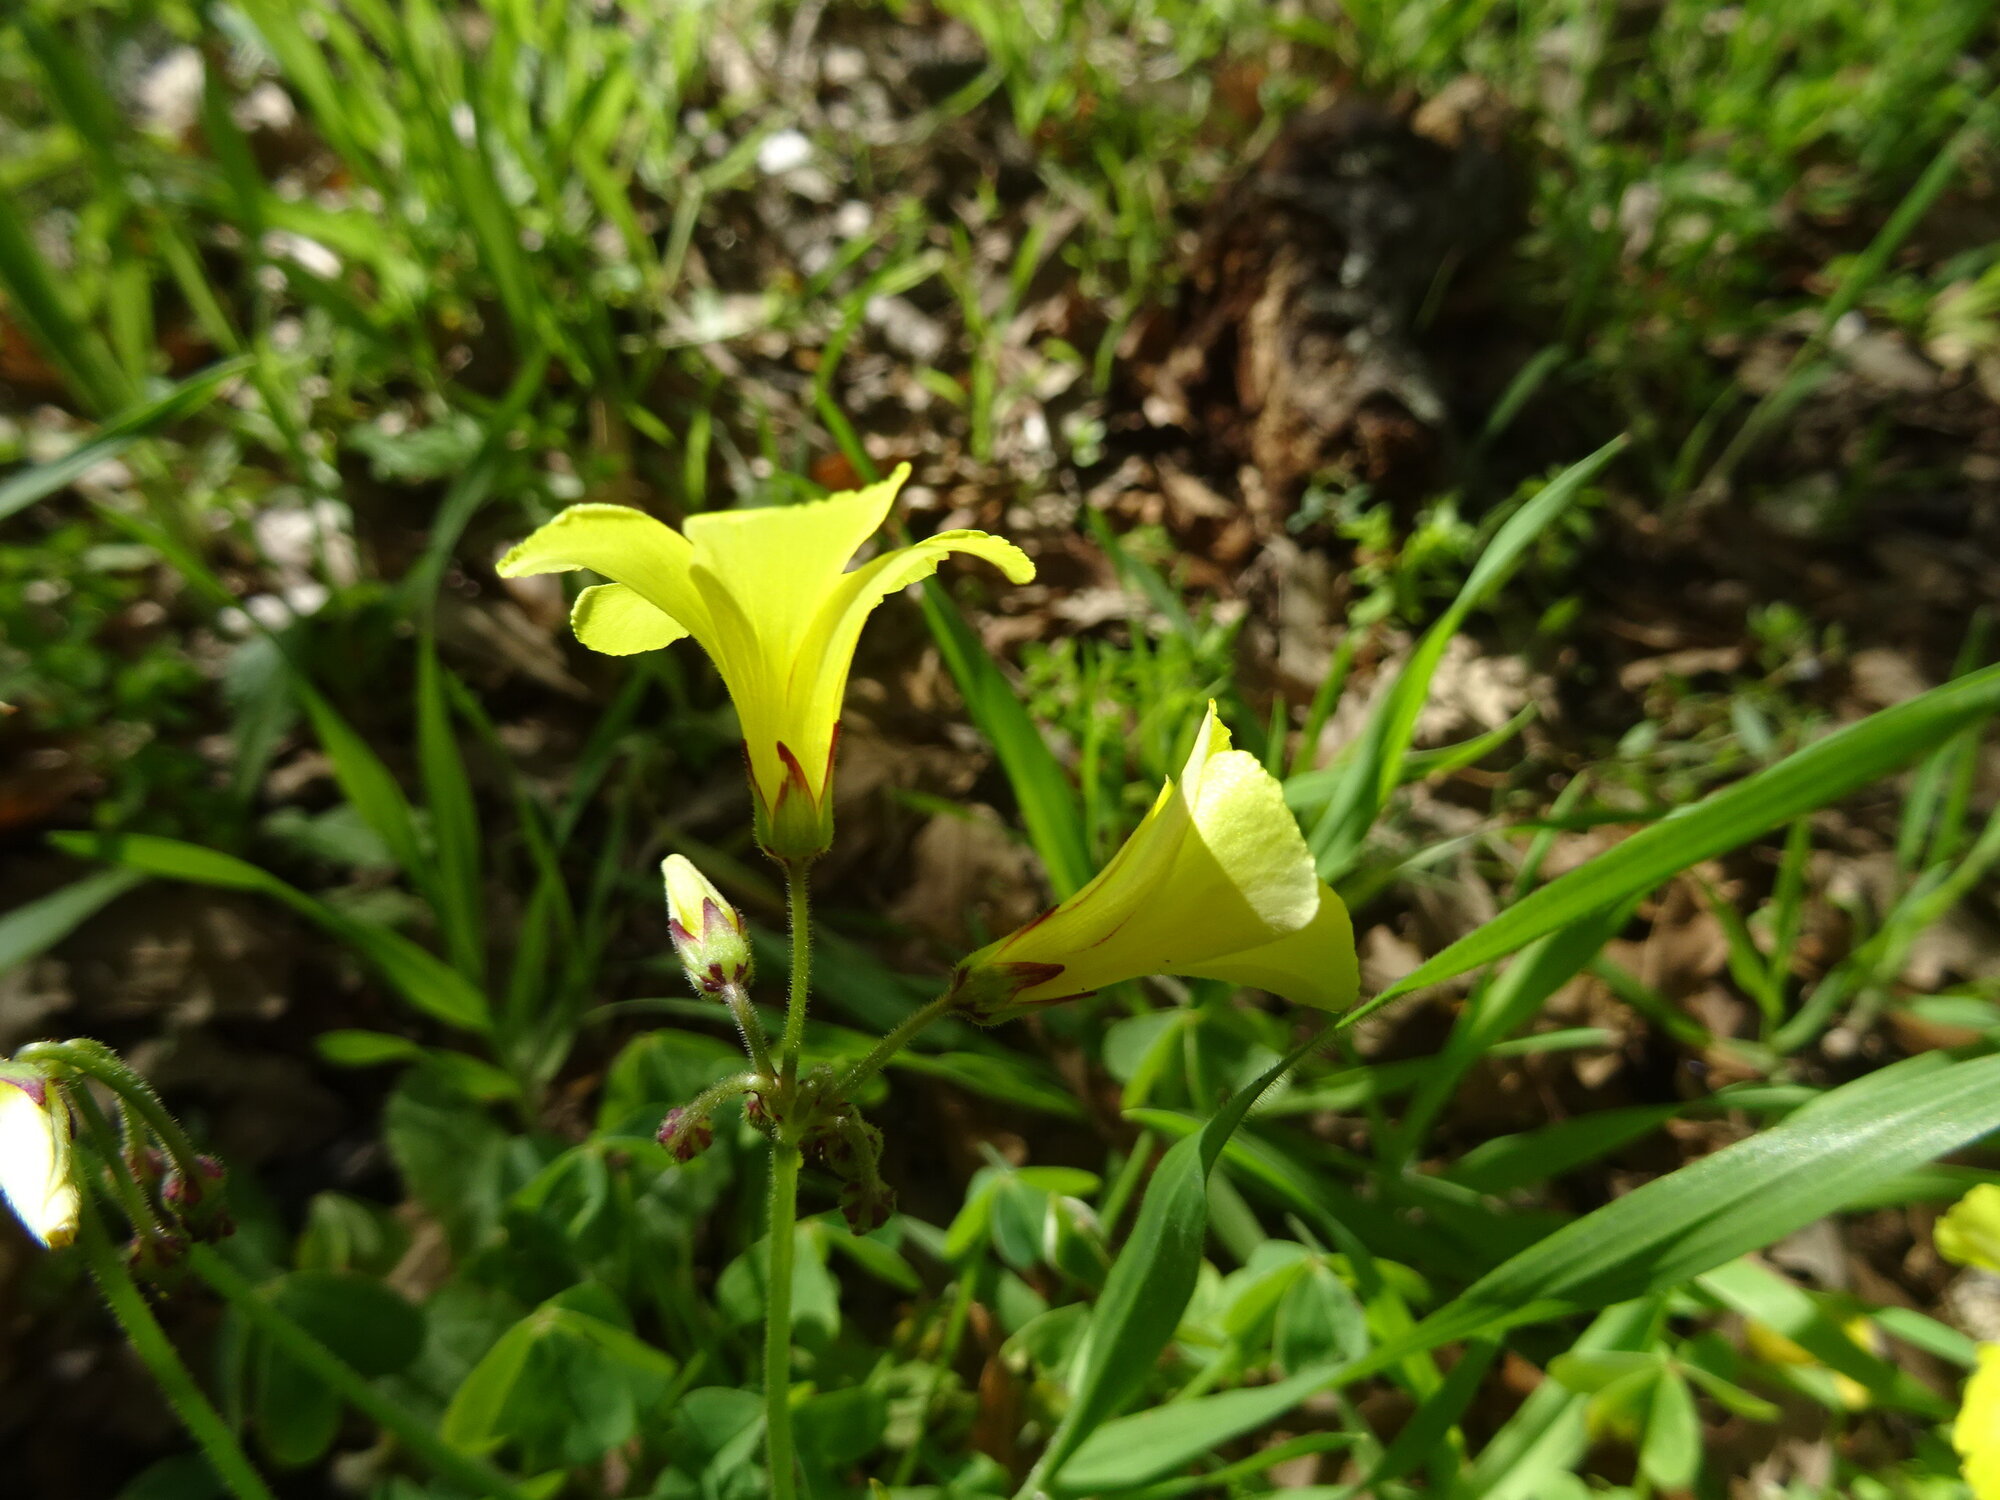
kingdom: Plantae
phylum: Tracheophyta
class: Magnoliopsida
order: Oxalidales
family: Oxalidaceae
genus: Oxalis
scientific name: Oxalis pes-caprae
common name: Bermuda-buttercup
